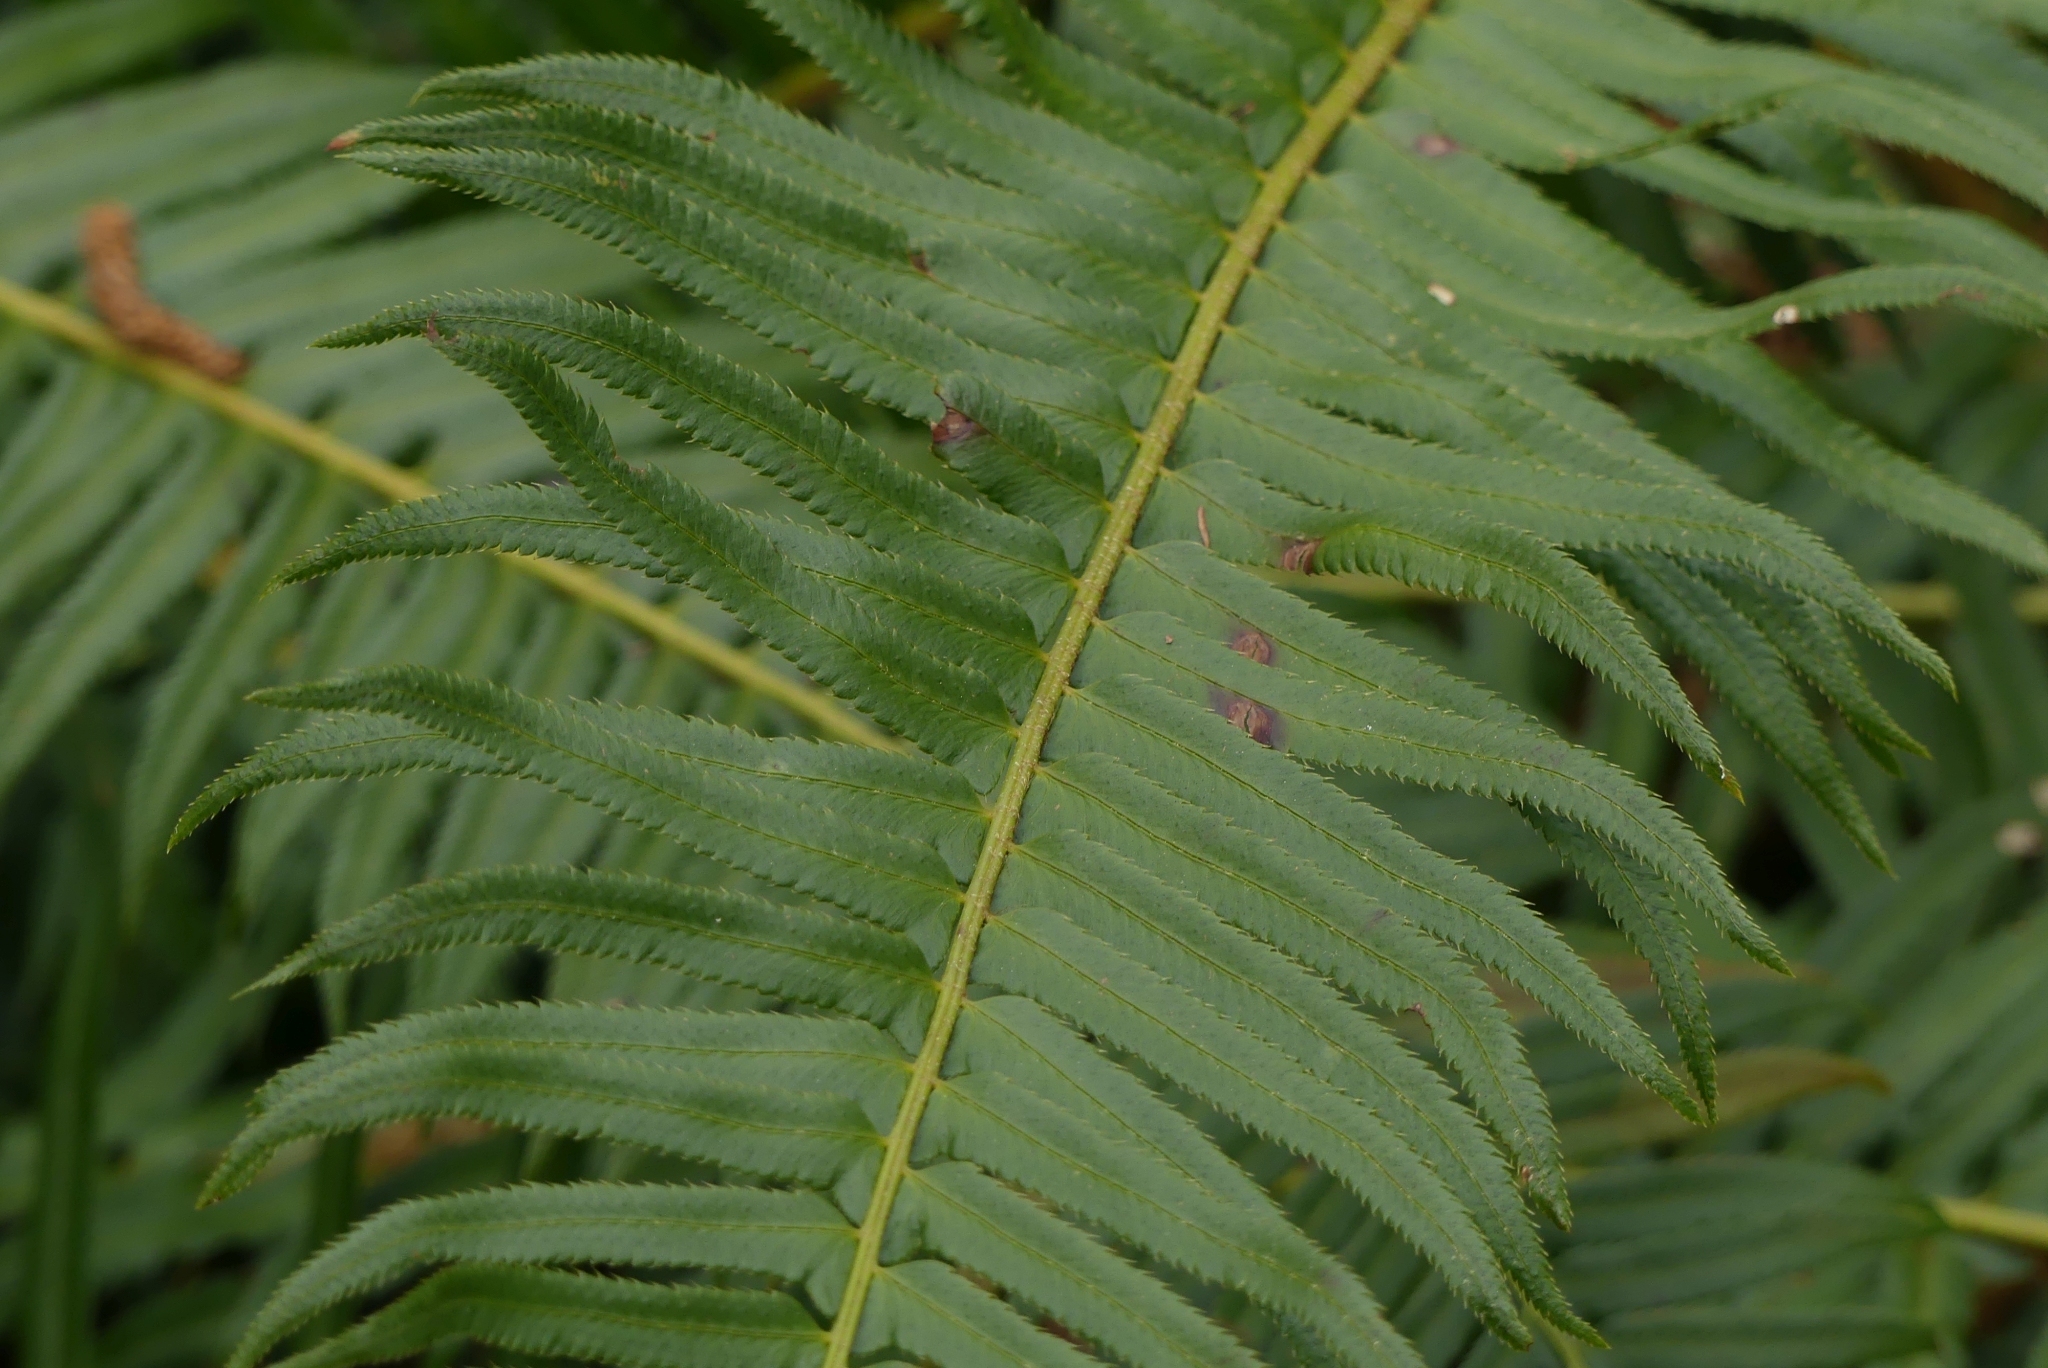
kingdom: Plantae
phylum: Tracheophyta
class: Polypodiopsida
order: Polypodiales
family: Dryopteridaceae
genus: Polystichum
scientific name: Polystichum munitum
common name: Western sword-fern
